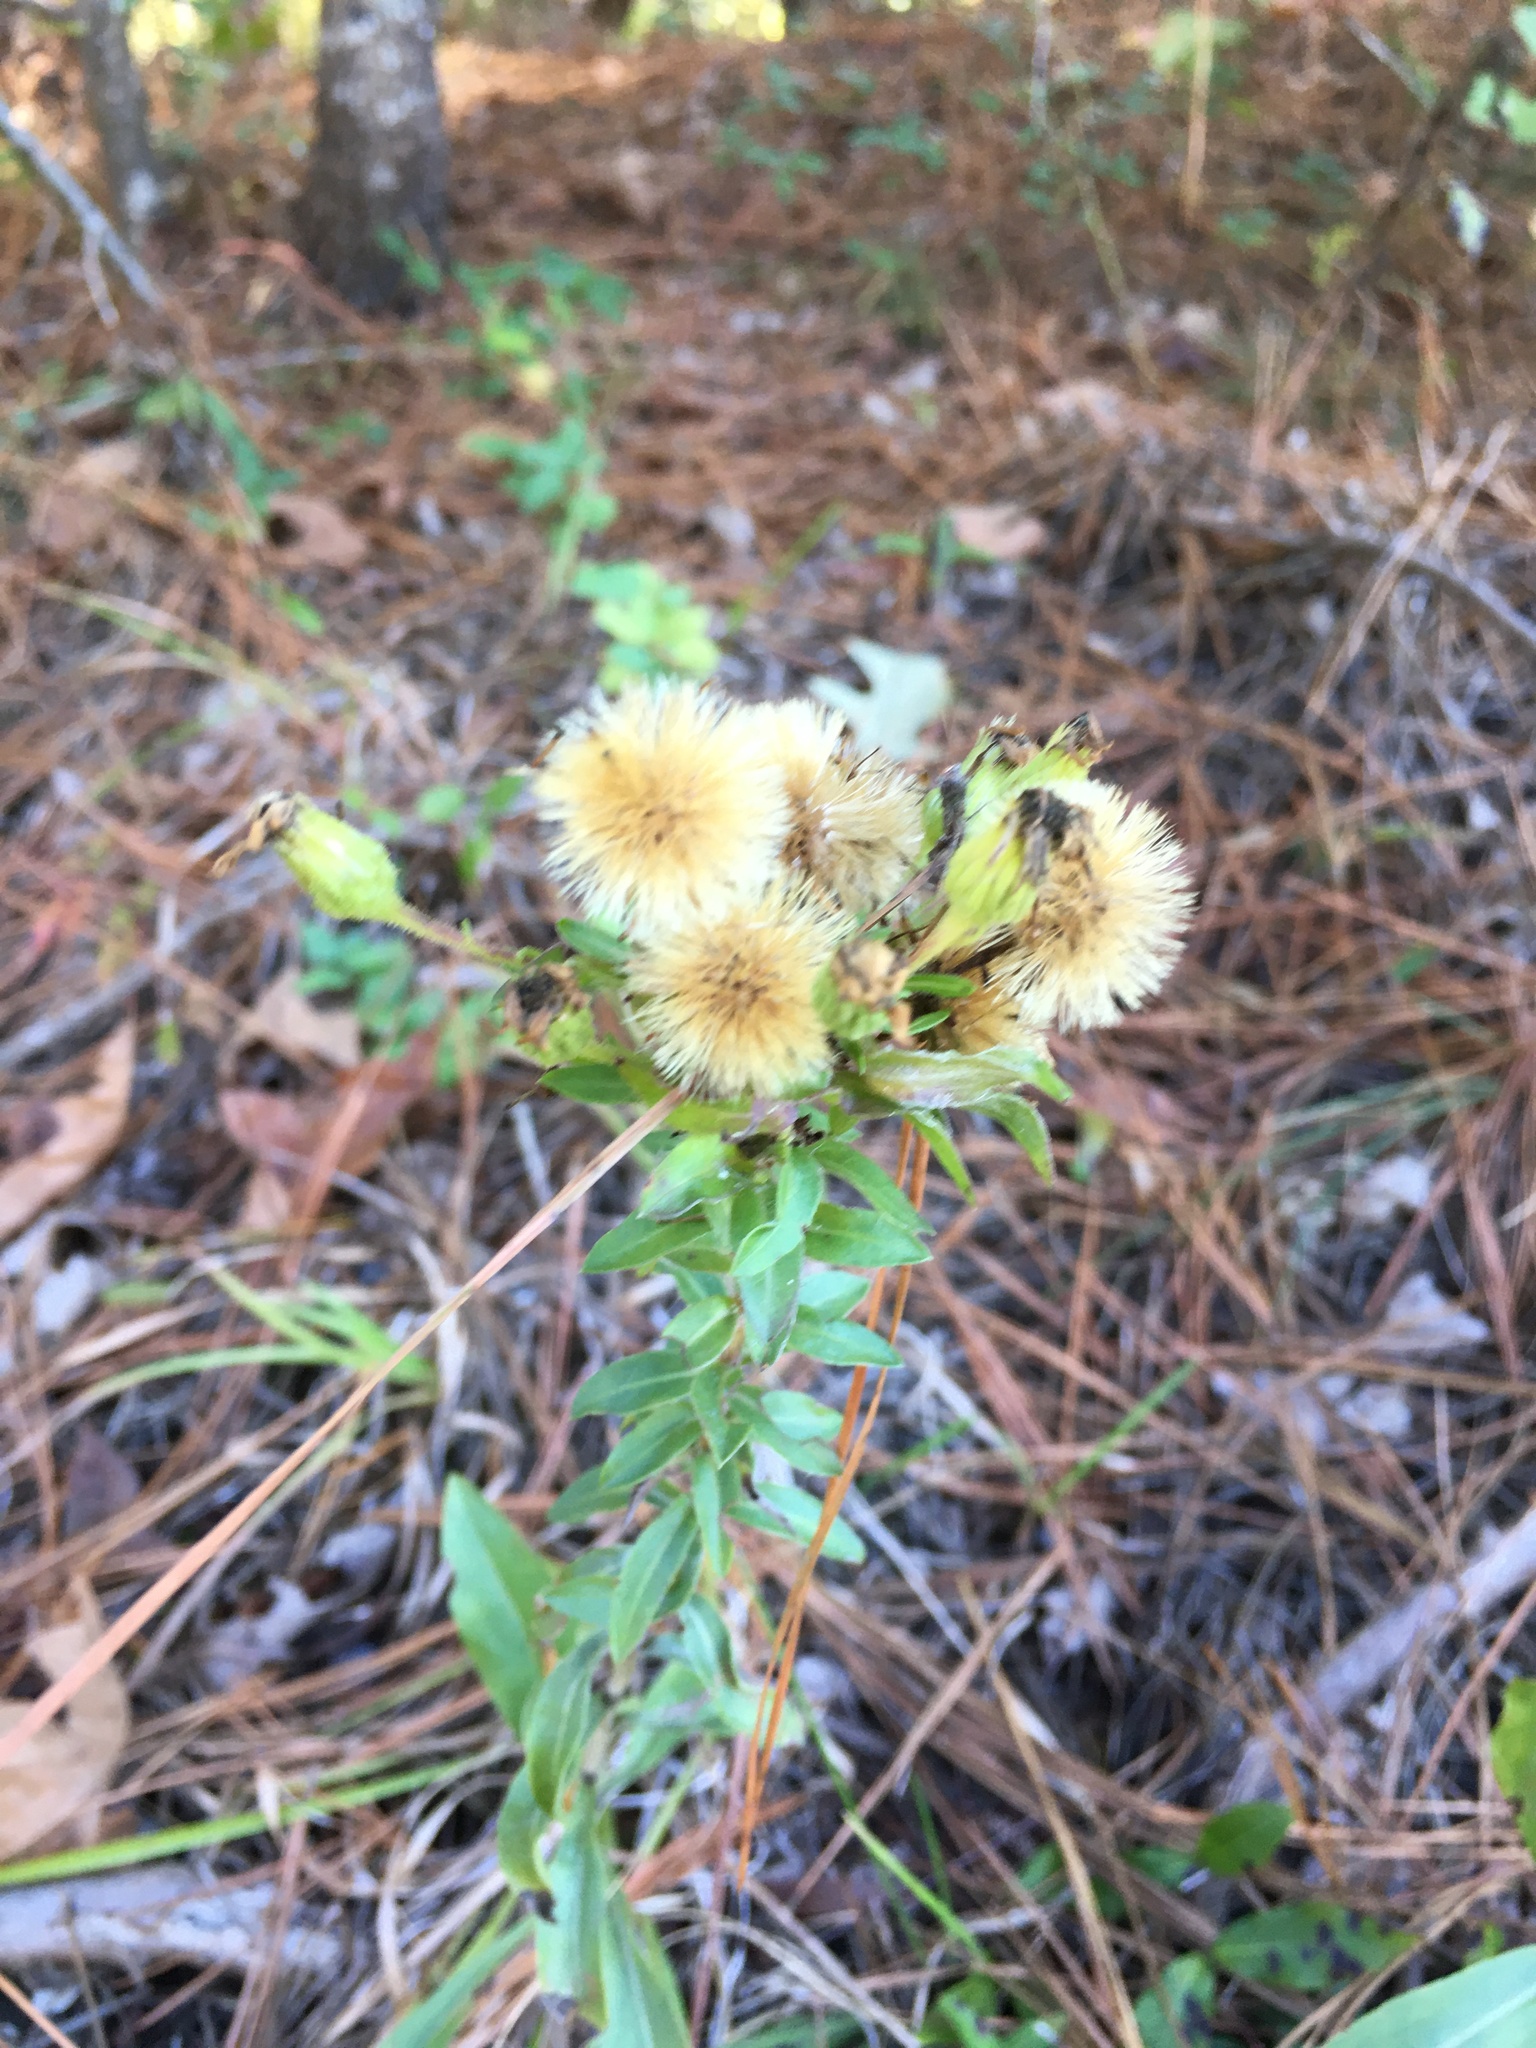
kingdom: Plantae
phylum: Tracheophyta
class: Magnoliopsida
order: Asterales
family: Asteraceae
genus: Chrysopsis
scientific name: Chrysopsis mariana
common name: Maryland golden-aster
